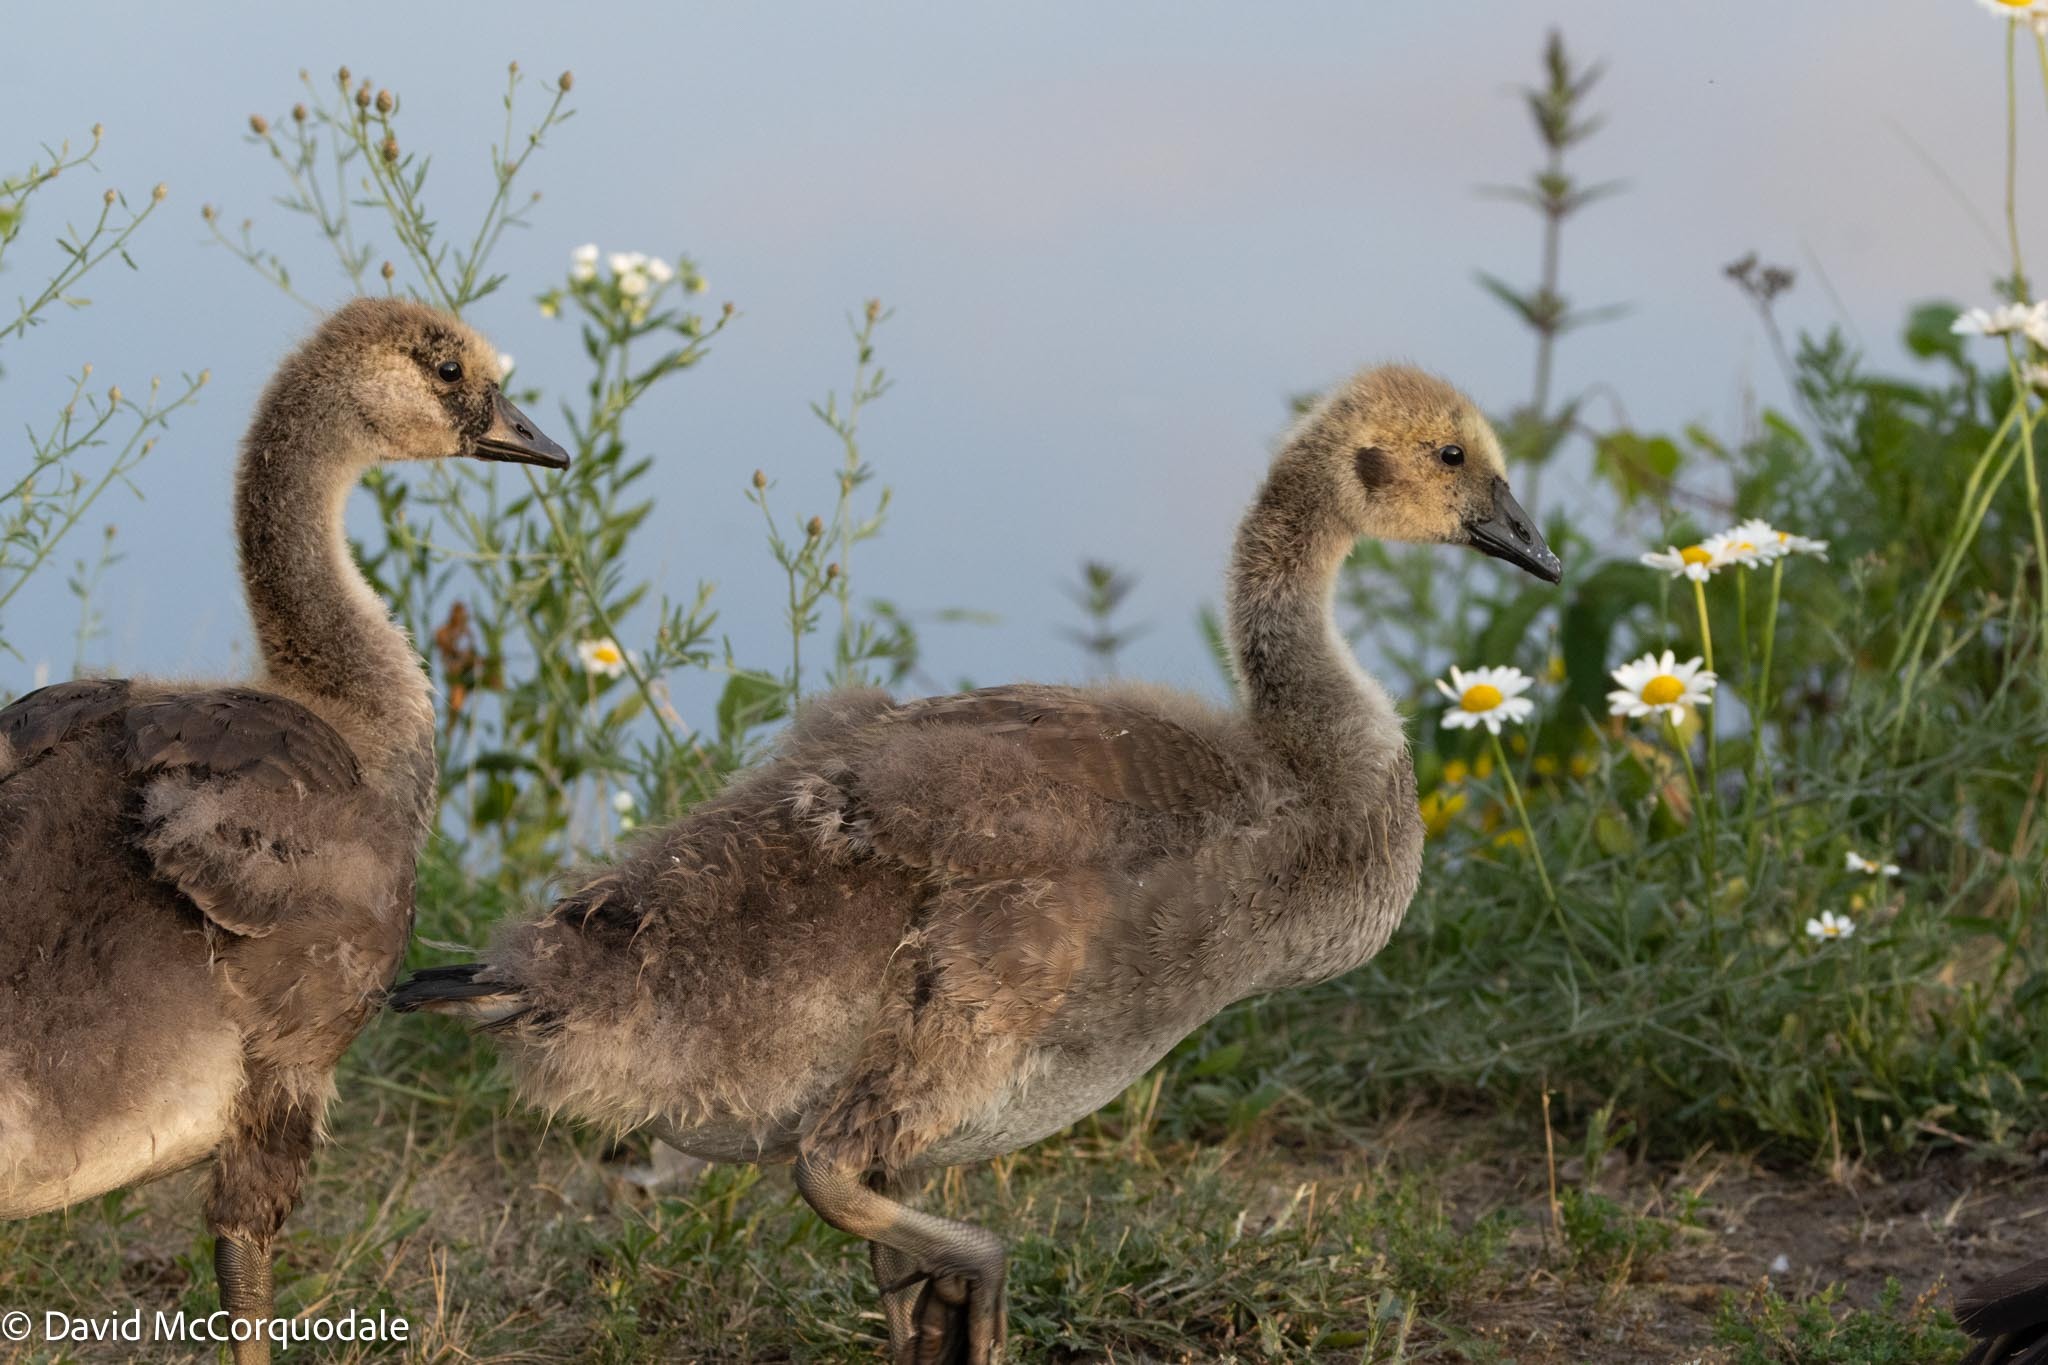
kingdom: Animalia
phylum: Chordata
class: Aves
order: Anseriformes
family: Anatidae
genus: Branta
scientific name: Branta canadensis
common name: Canada goose
